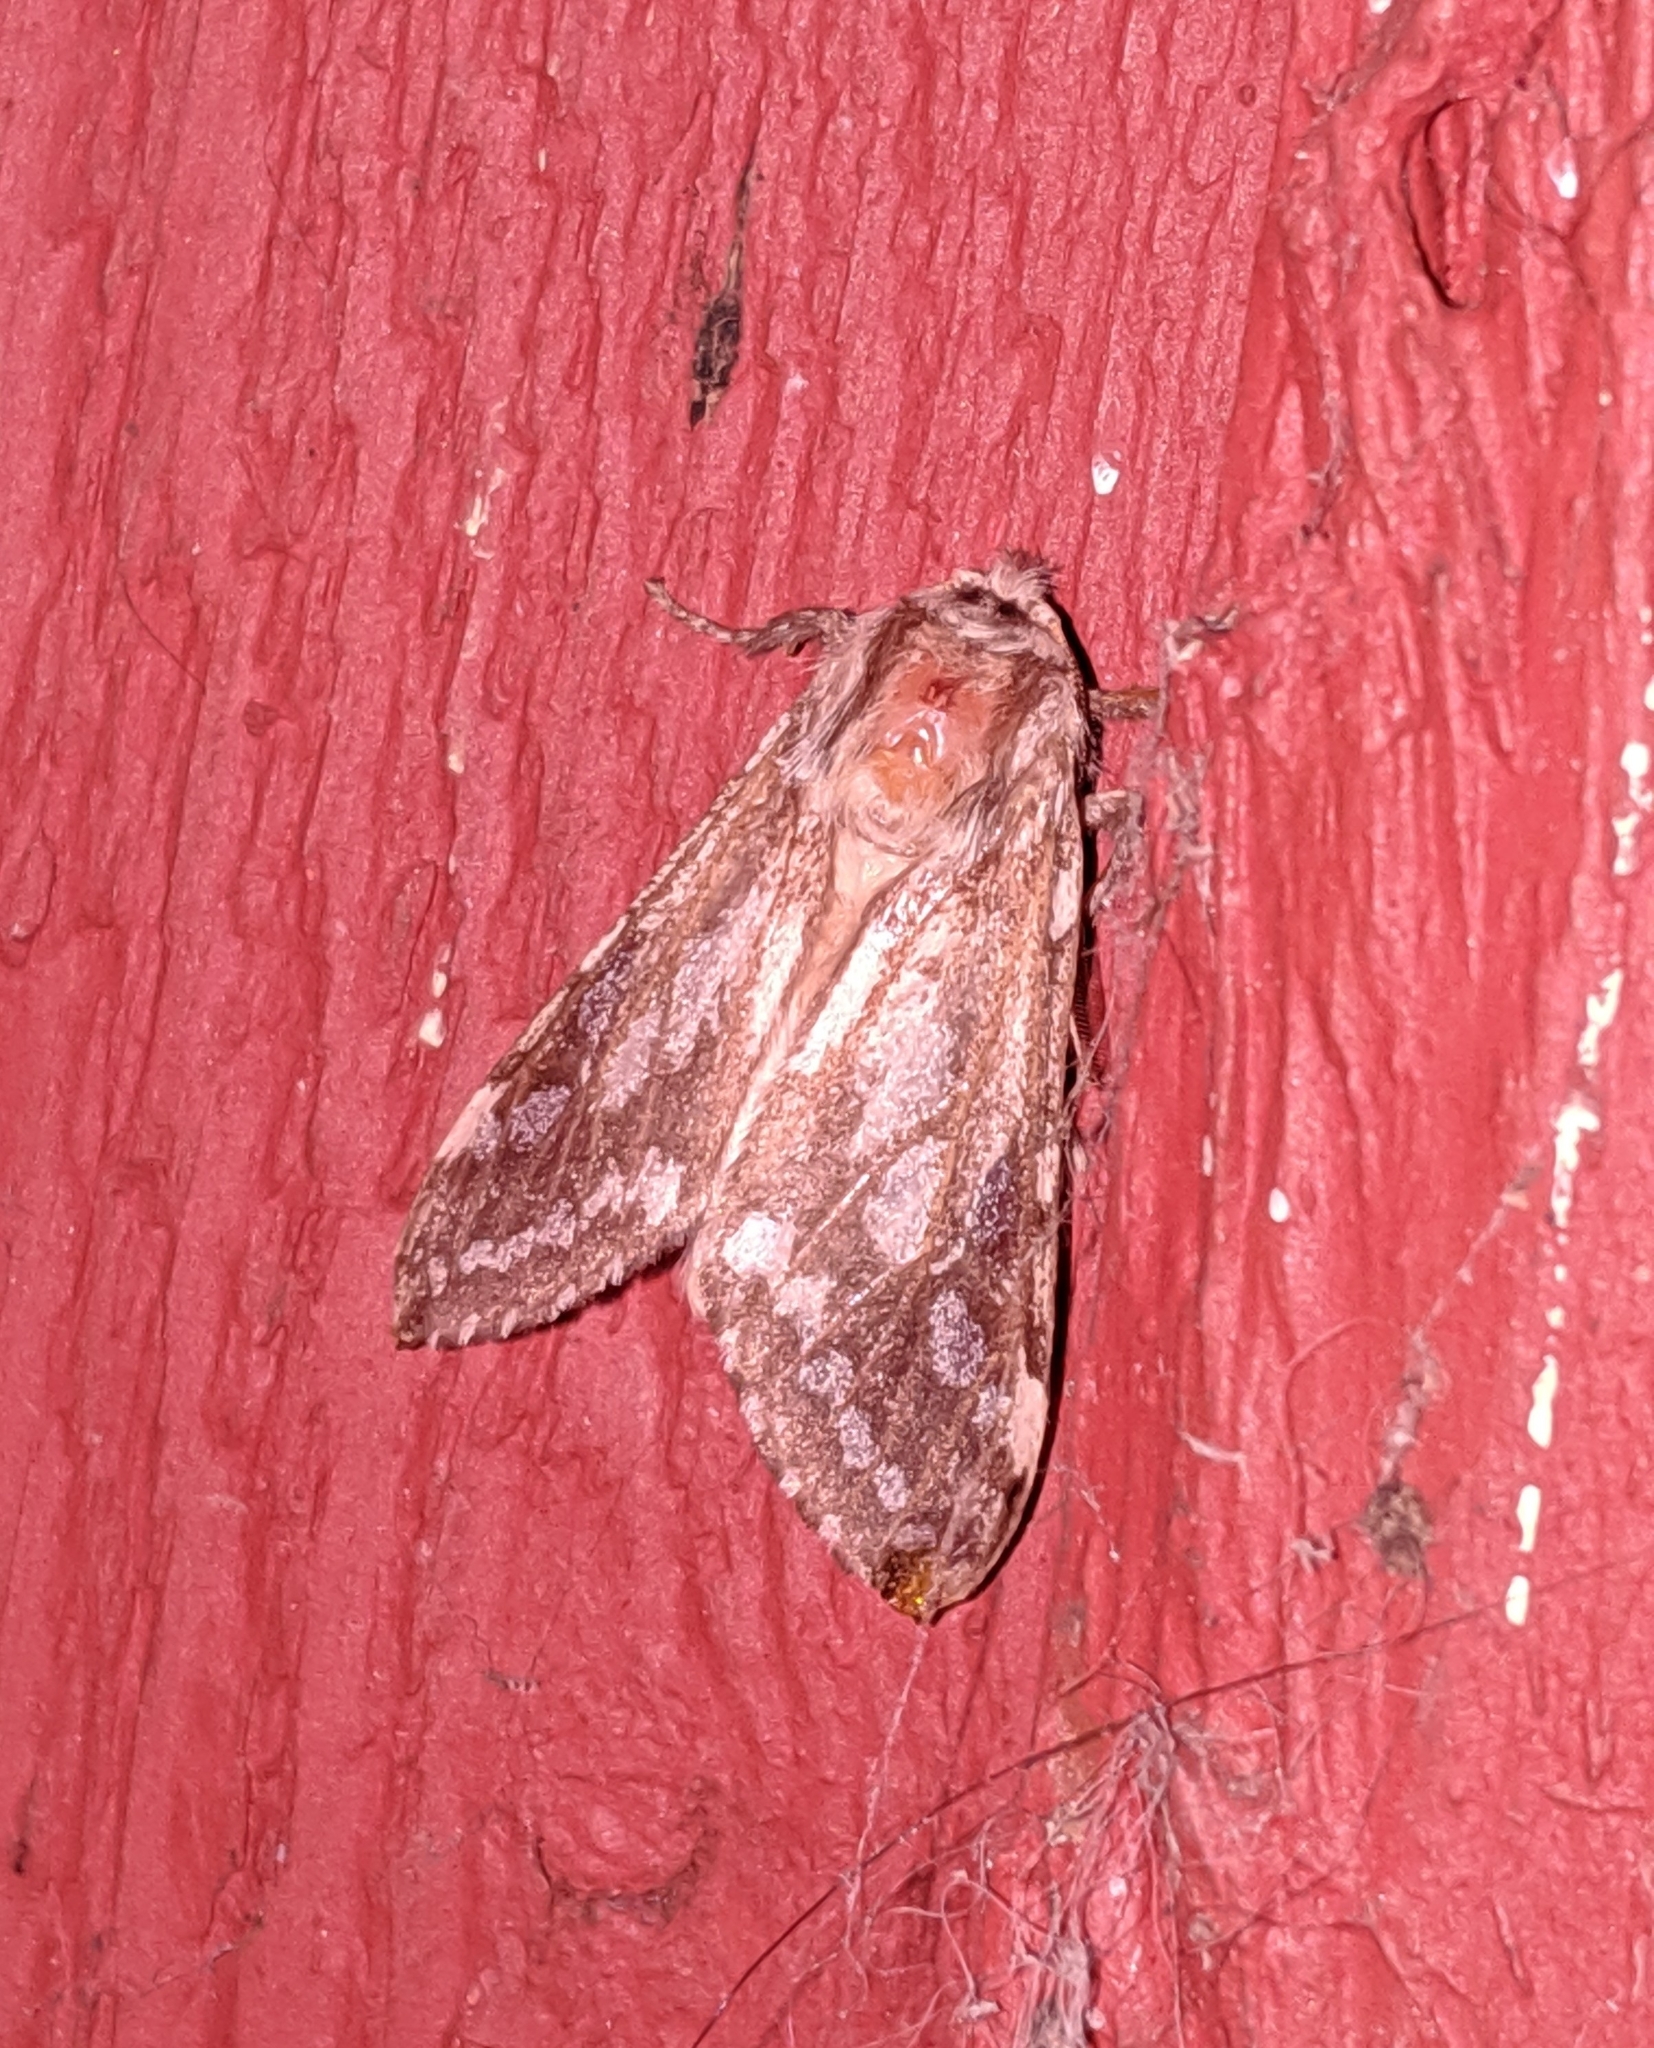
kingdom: Animalia
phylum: Arthropoda
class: Insecta
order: Lepidoptera
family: Erebidae
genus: Lophocampa
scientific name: Lophocampa argentata
